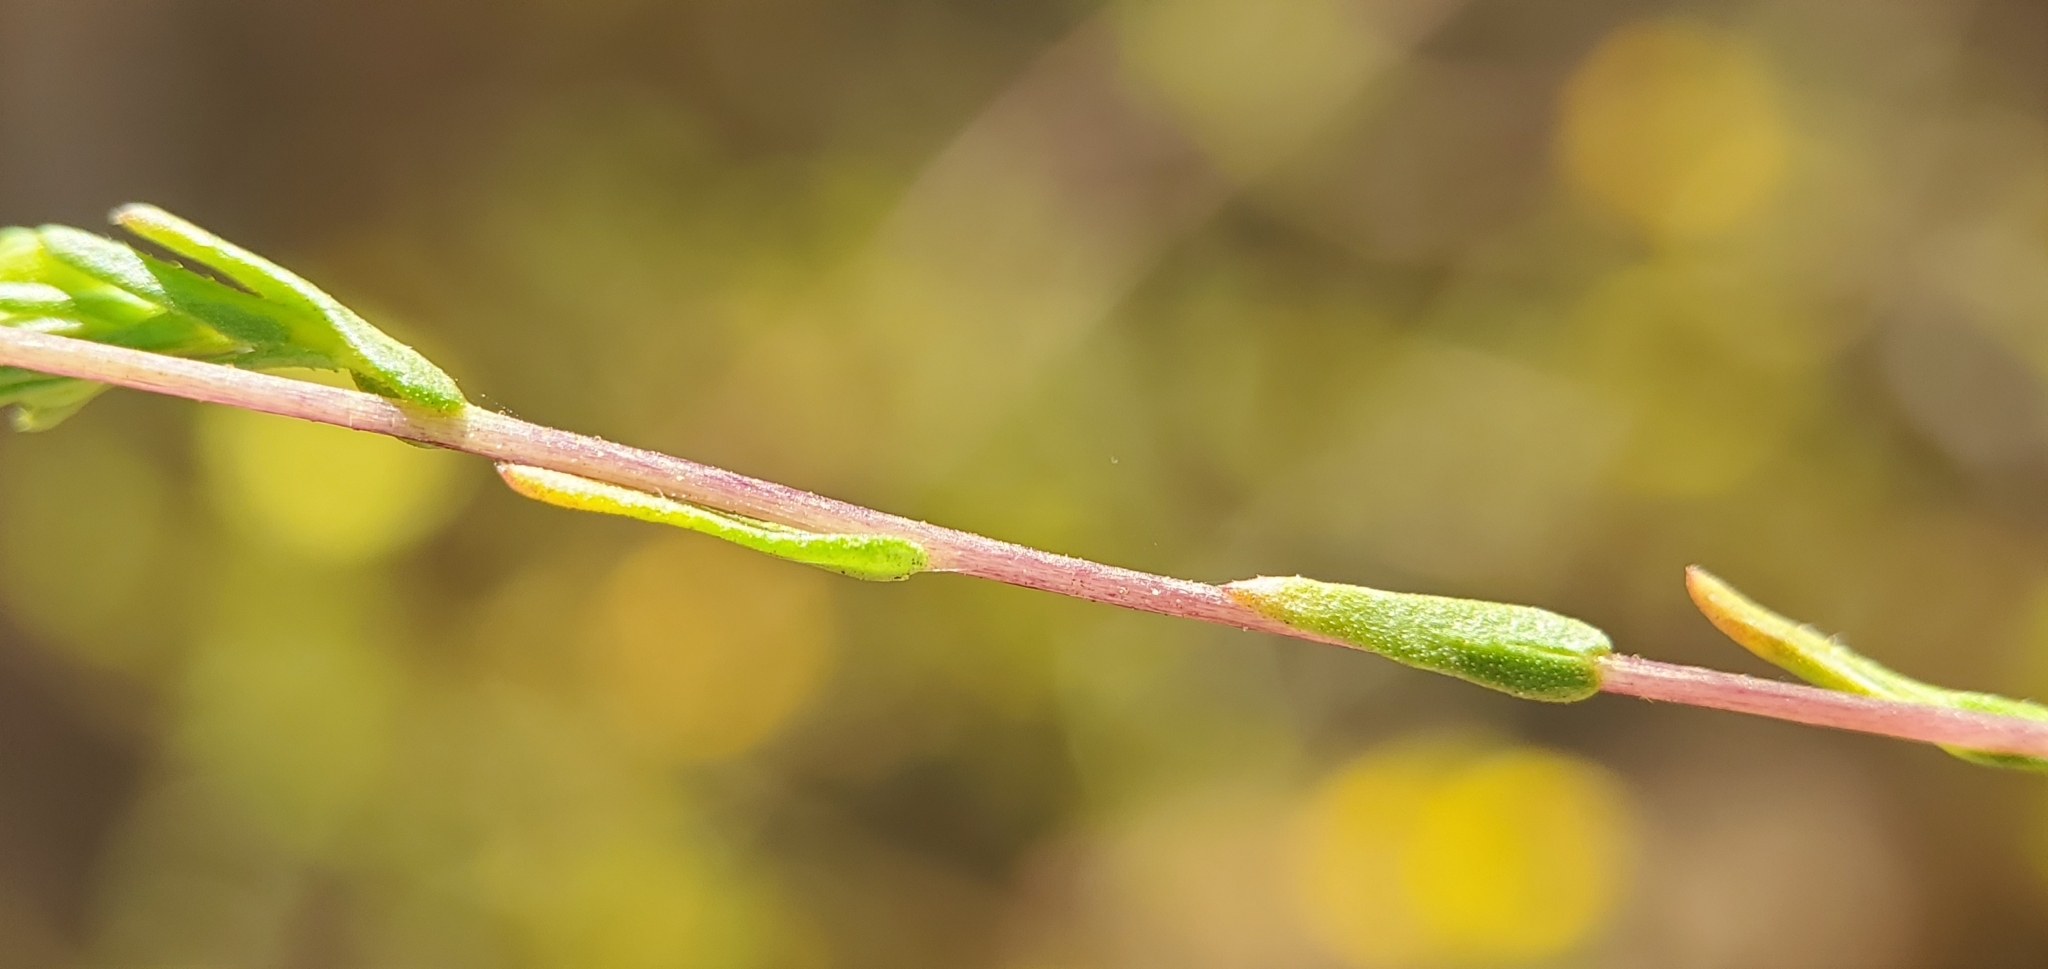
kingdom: Plantae
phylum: Tracheophyta
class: Magnoliopsida
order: Asterales
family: Asteraceae
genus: Deinandra
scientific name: Deinandra fasciculata
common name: Clustered tarweed
